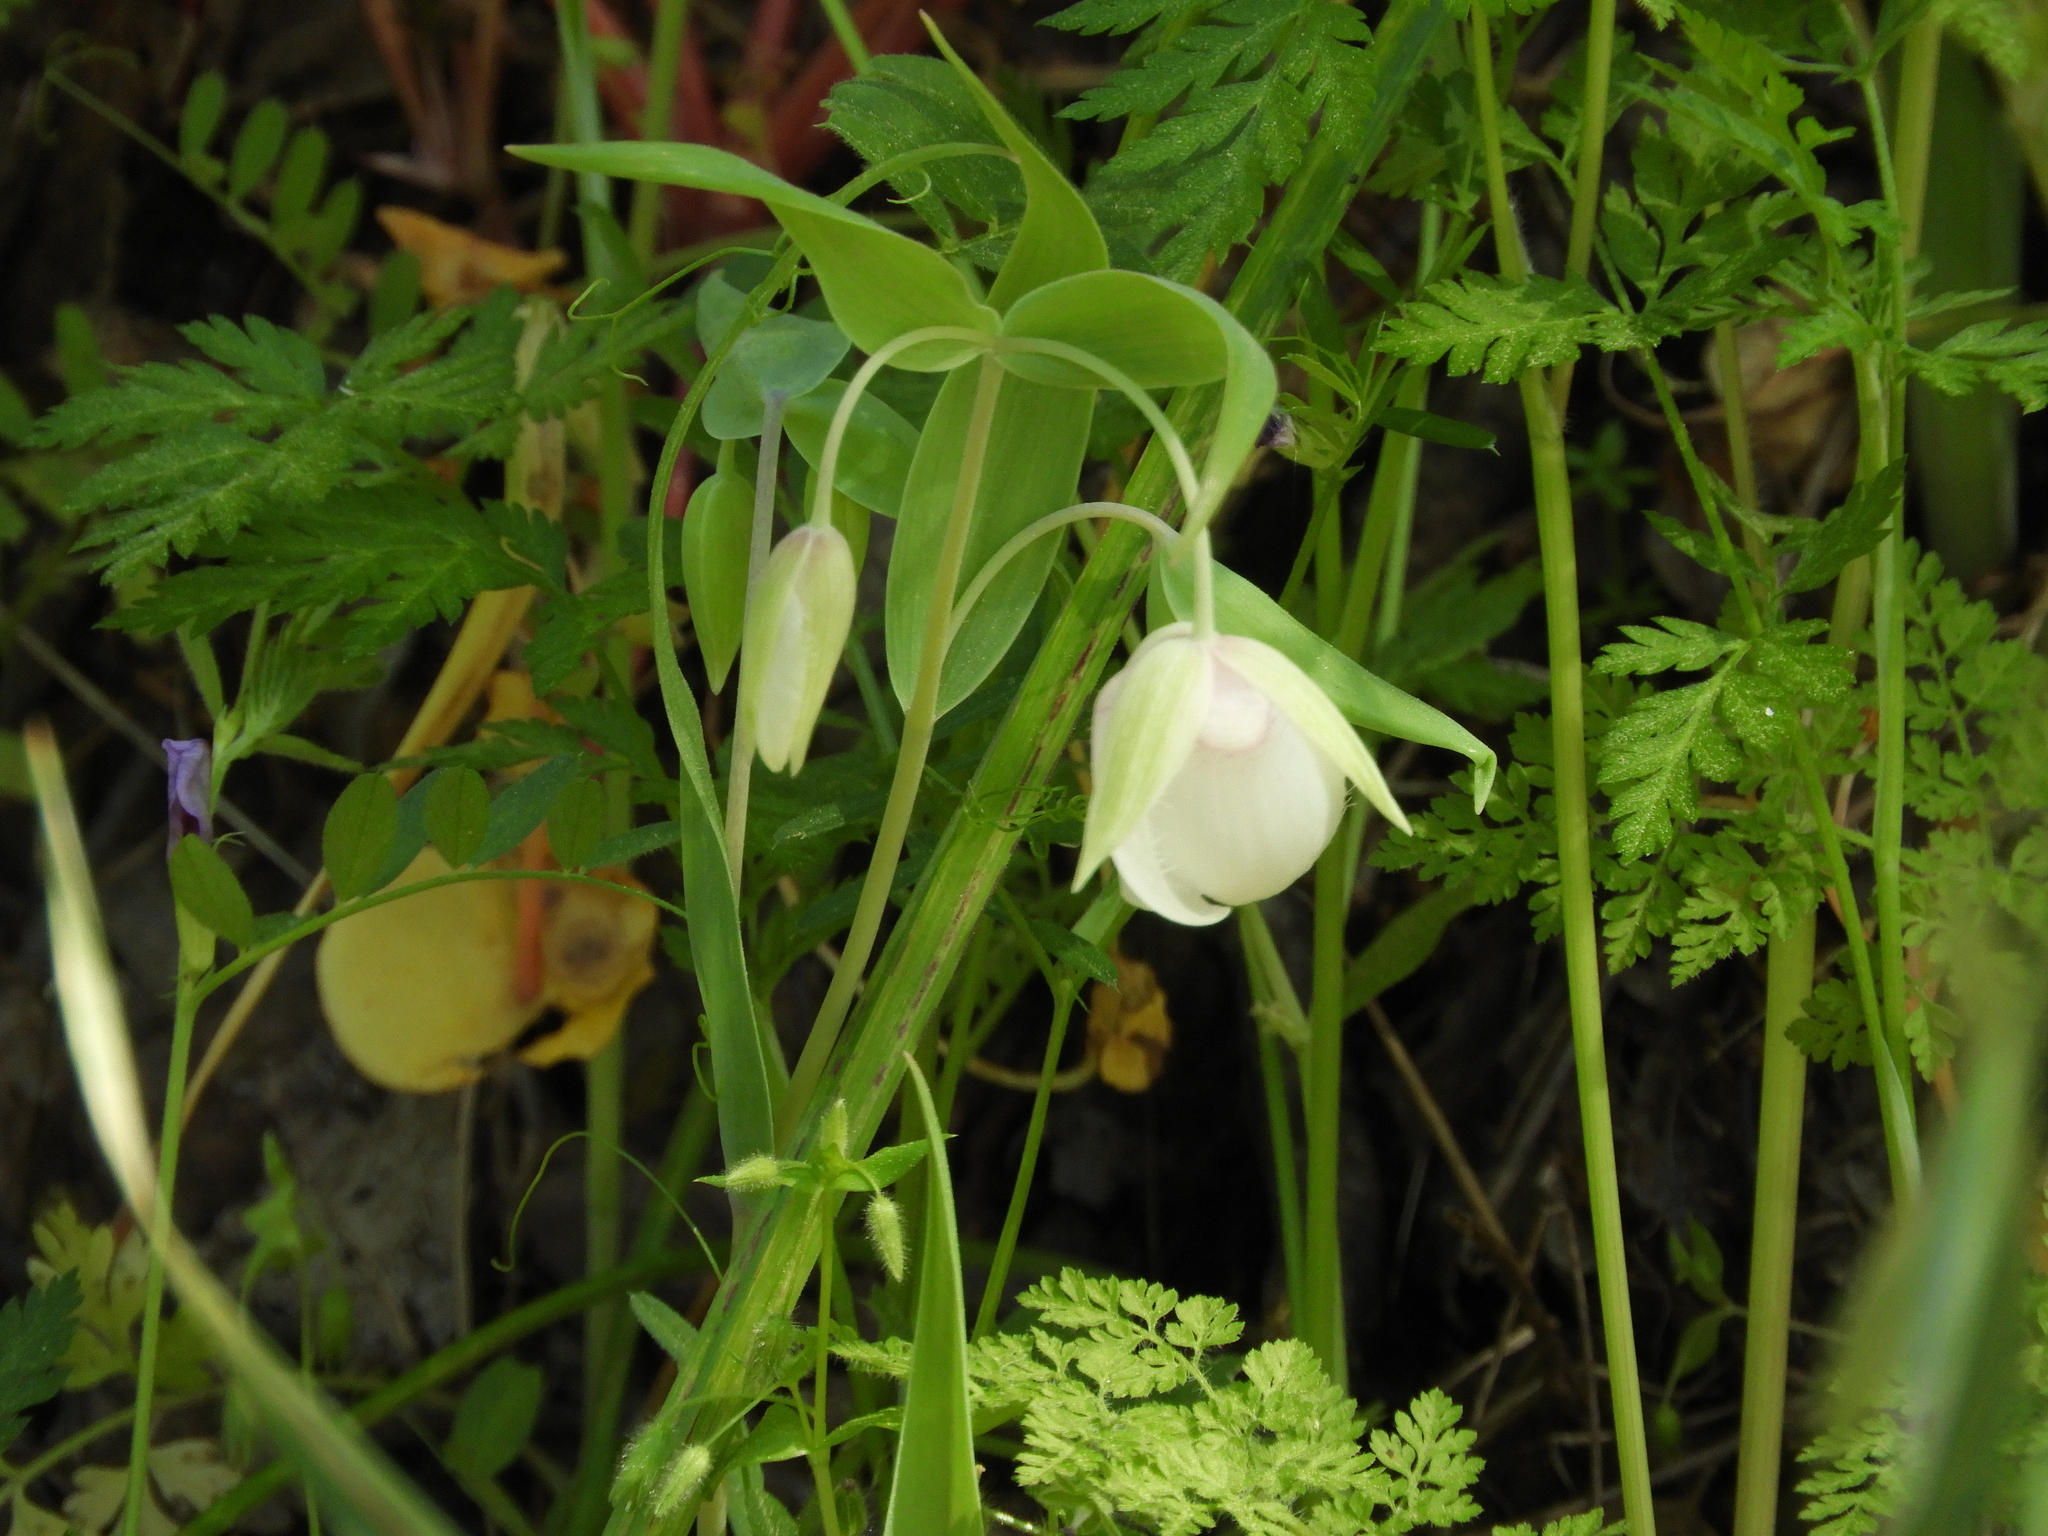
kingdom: Plantae
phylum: Tracheophyta
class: Liliopsida
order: Liliales
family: Liliaceae
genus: Calochortus
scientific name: Calochortus albus
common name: Fairy-lantern
